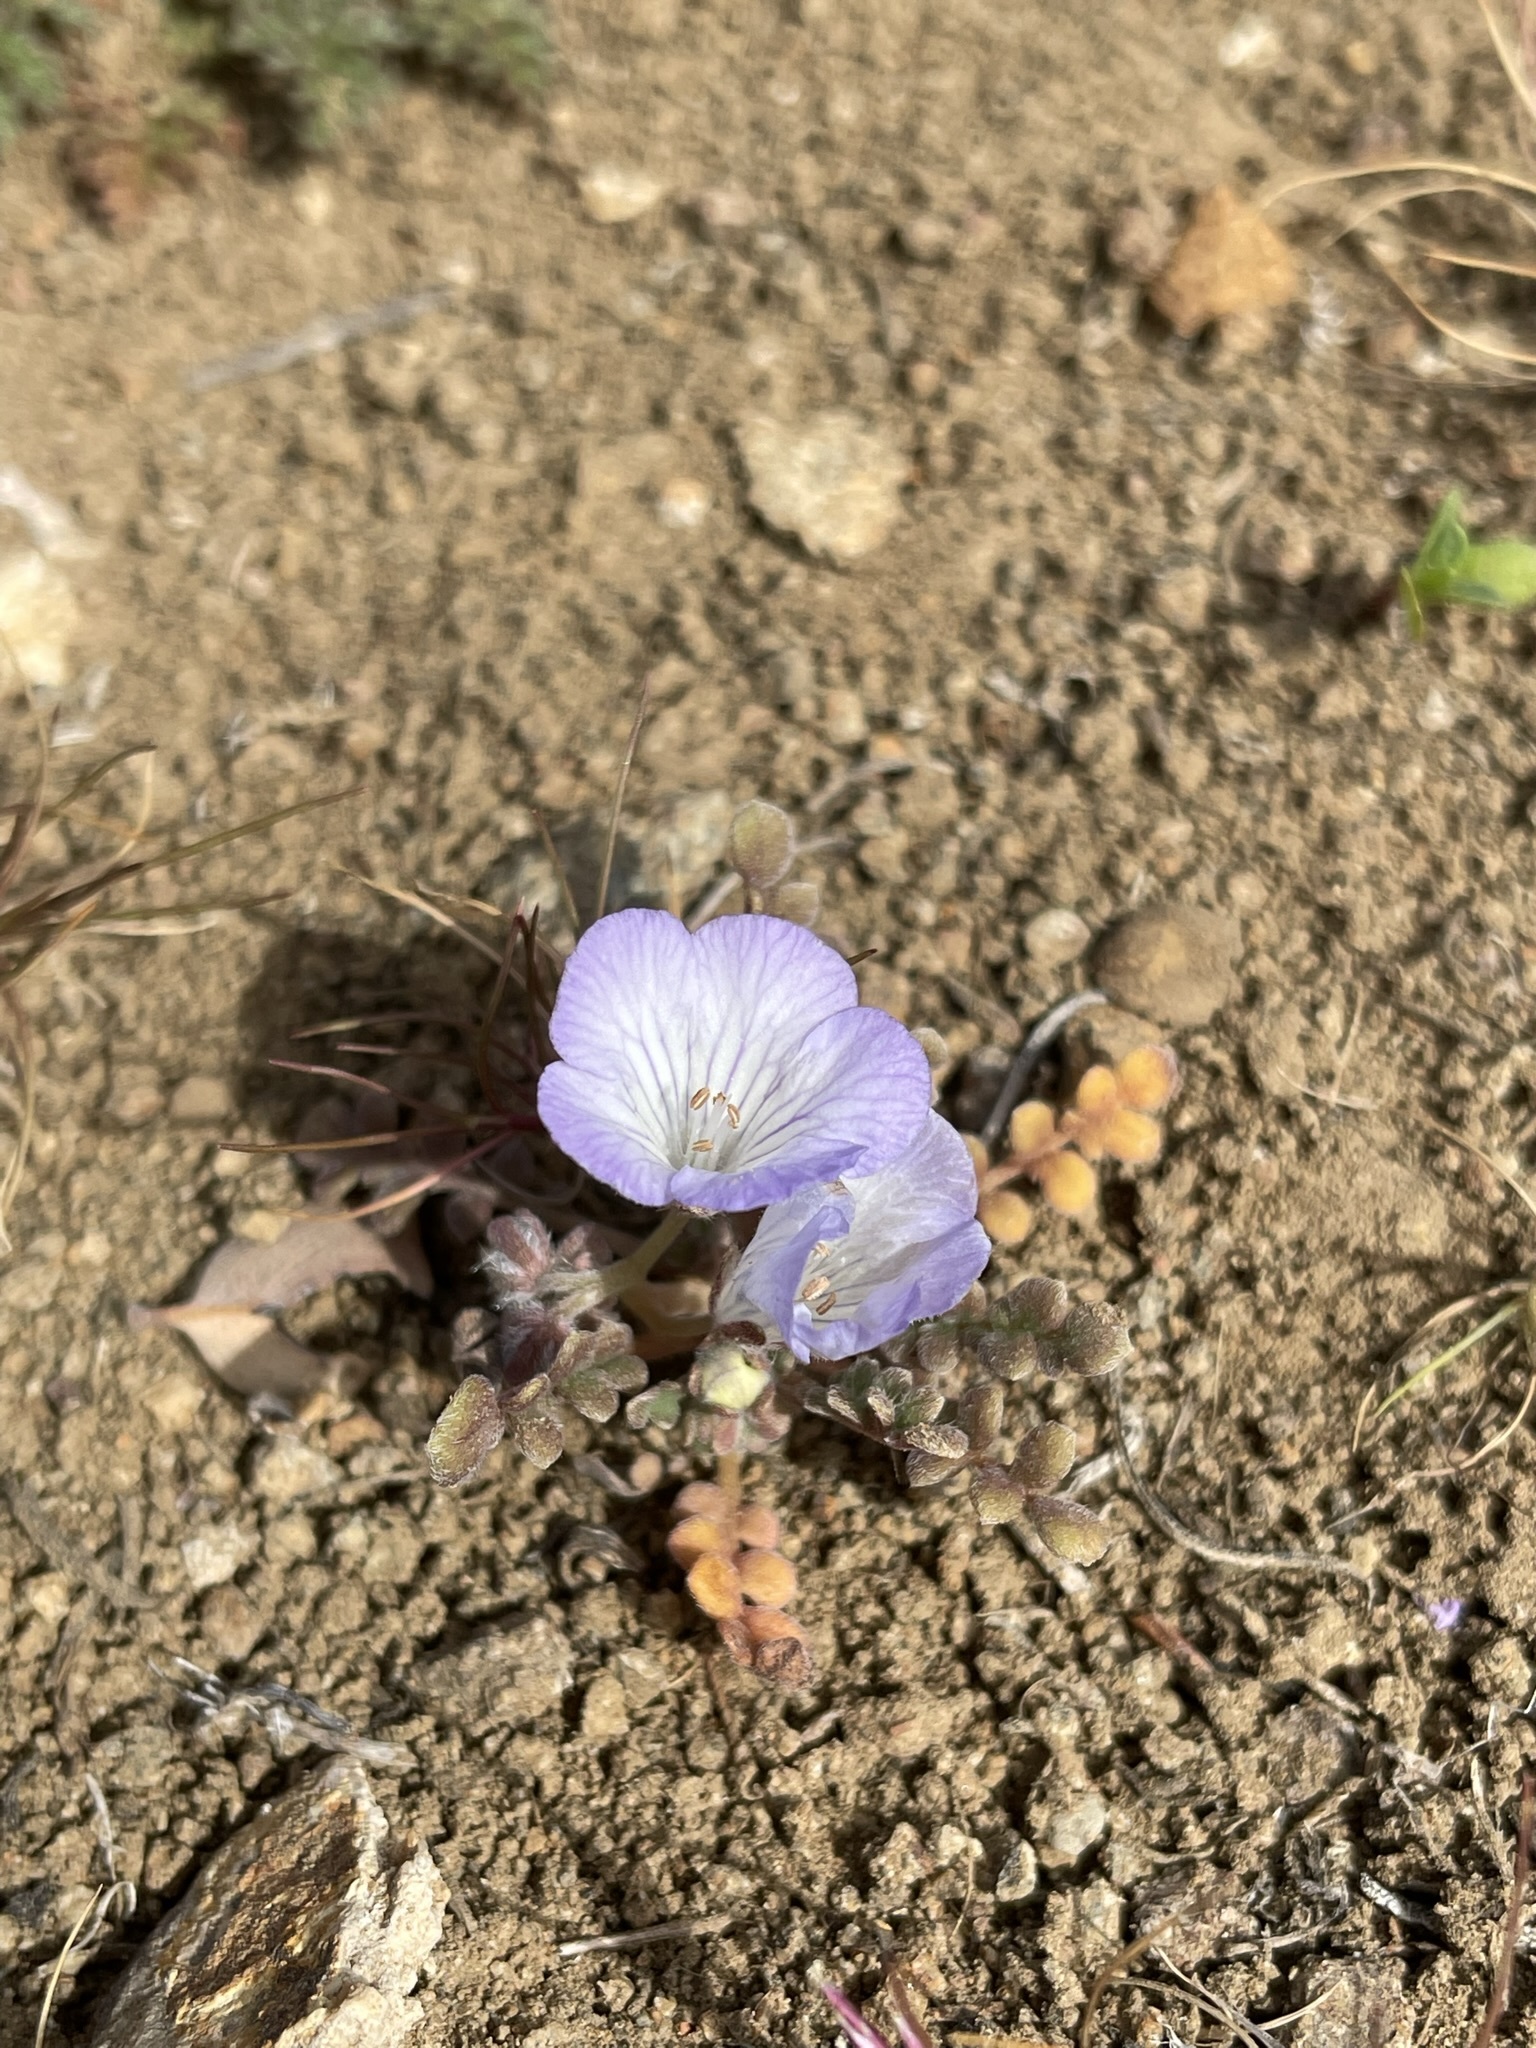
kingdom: Plantae
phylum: Tracheophyta
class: Magnoliopsida
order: Boraginales
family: Hydrophyllaceae
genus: Phacelia
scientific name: Phacelia douglasii
